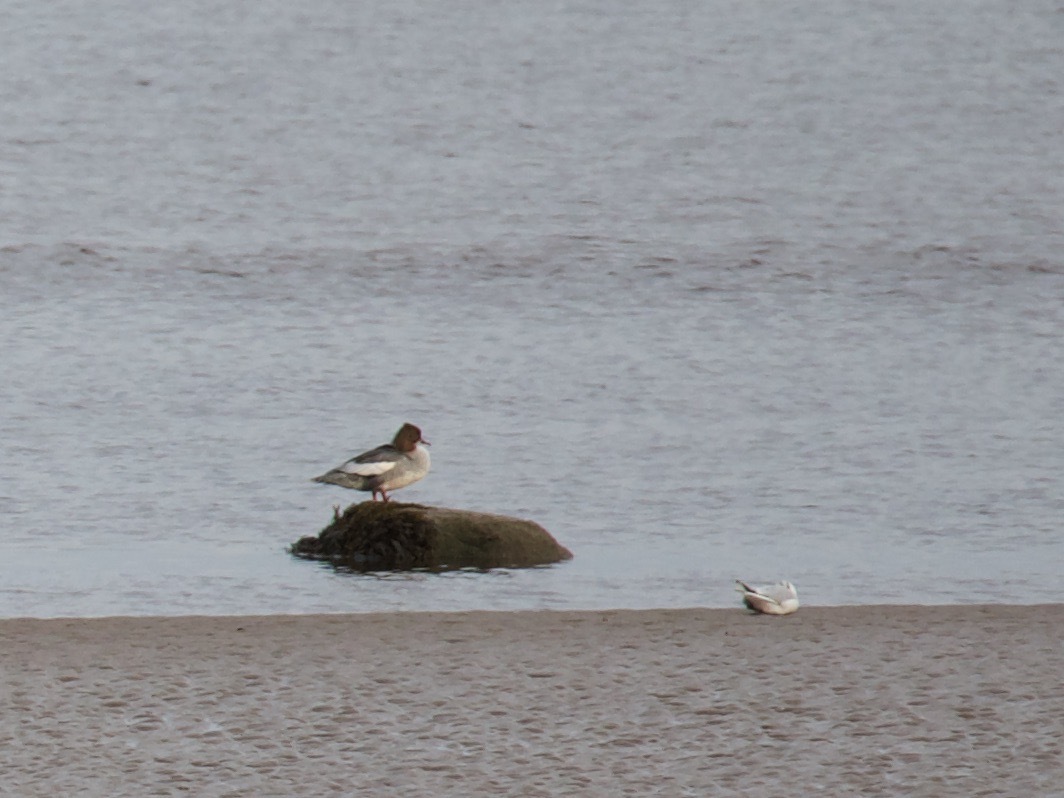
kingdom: Animalia
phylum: Chordata
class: Aves
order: Anseriformes
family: Anatidae
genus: Mergus
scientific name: Mergus merganser
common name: Common merganser
